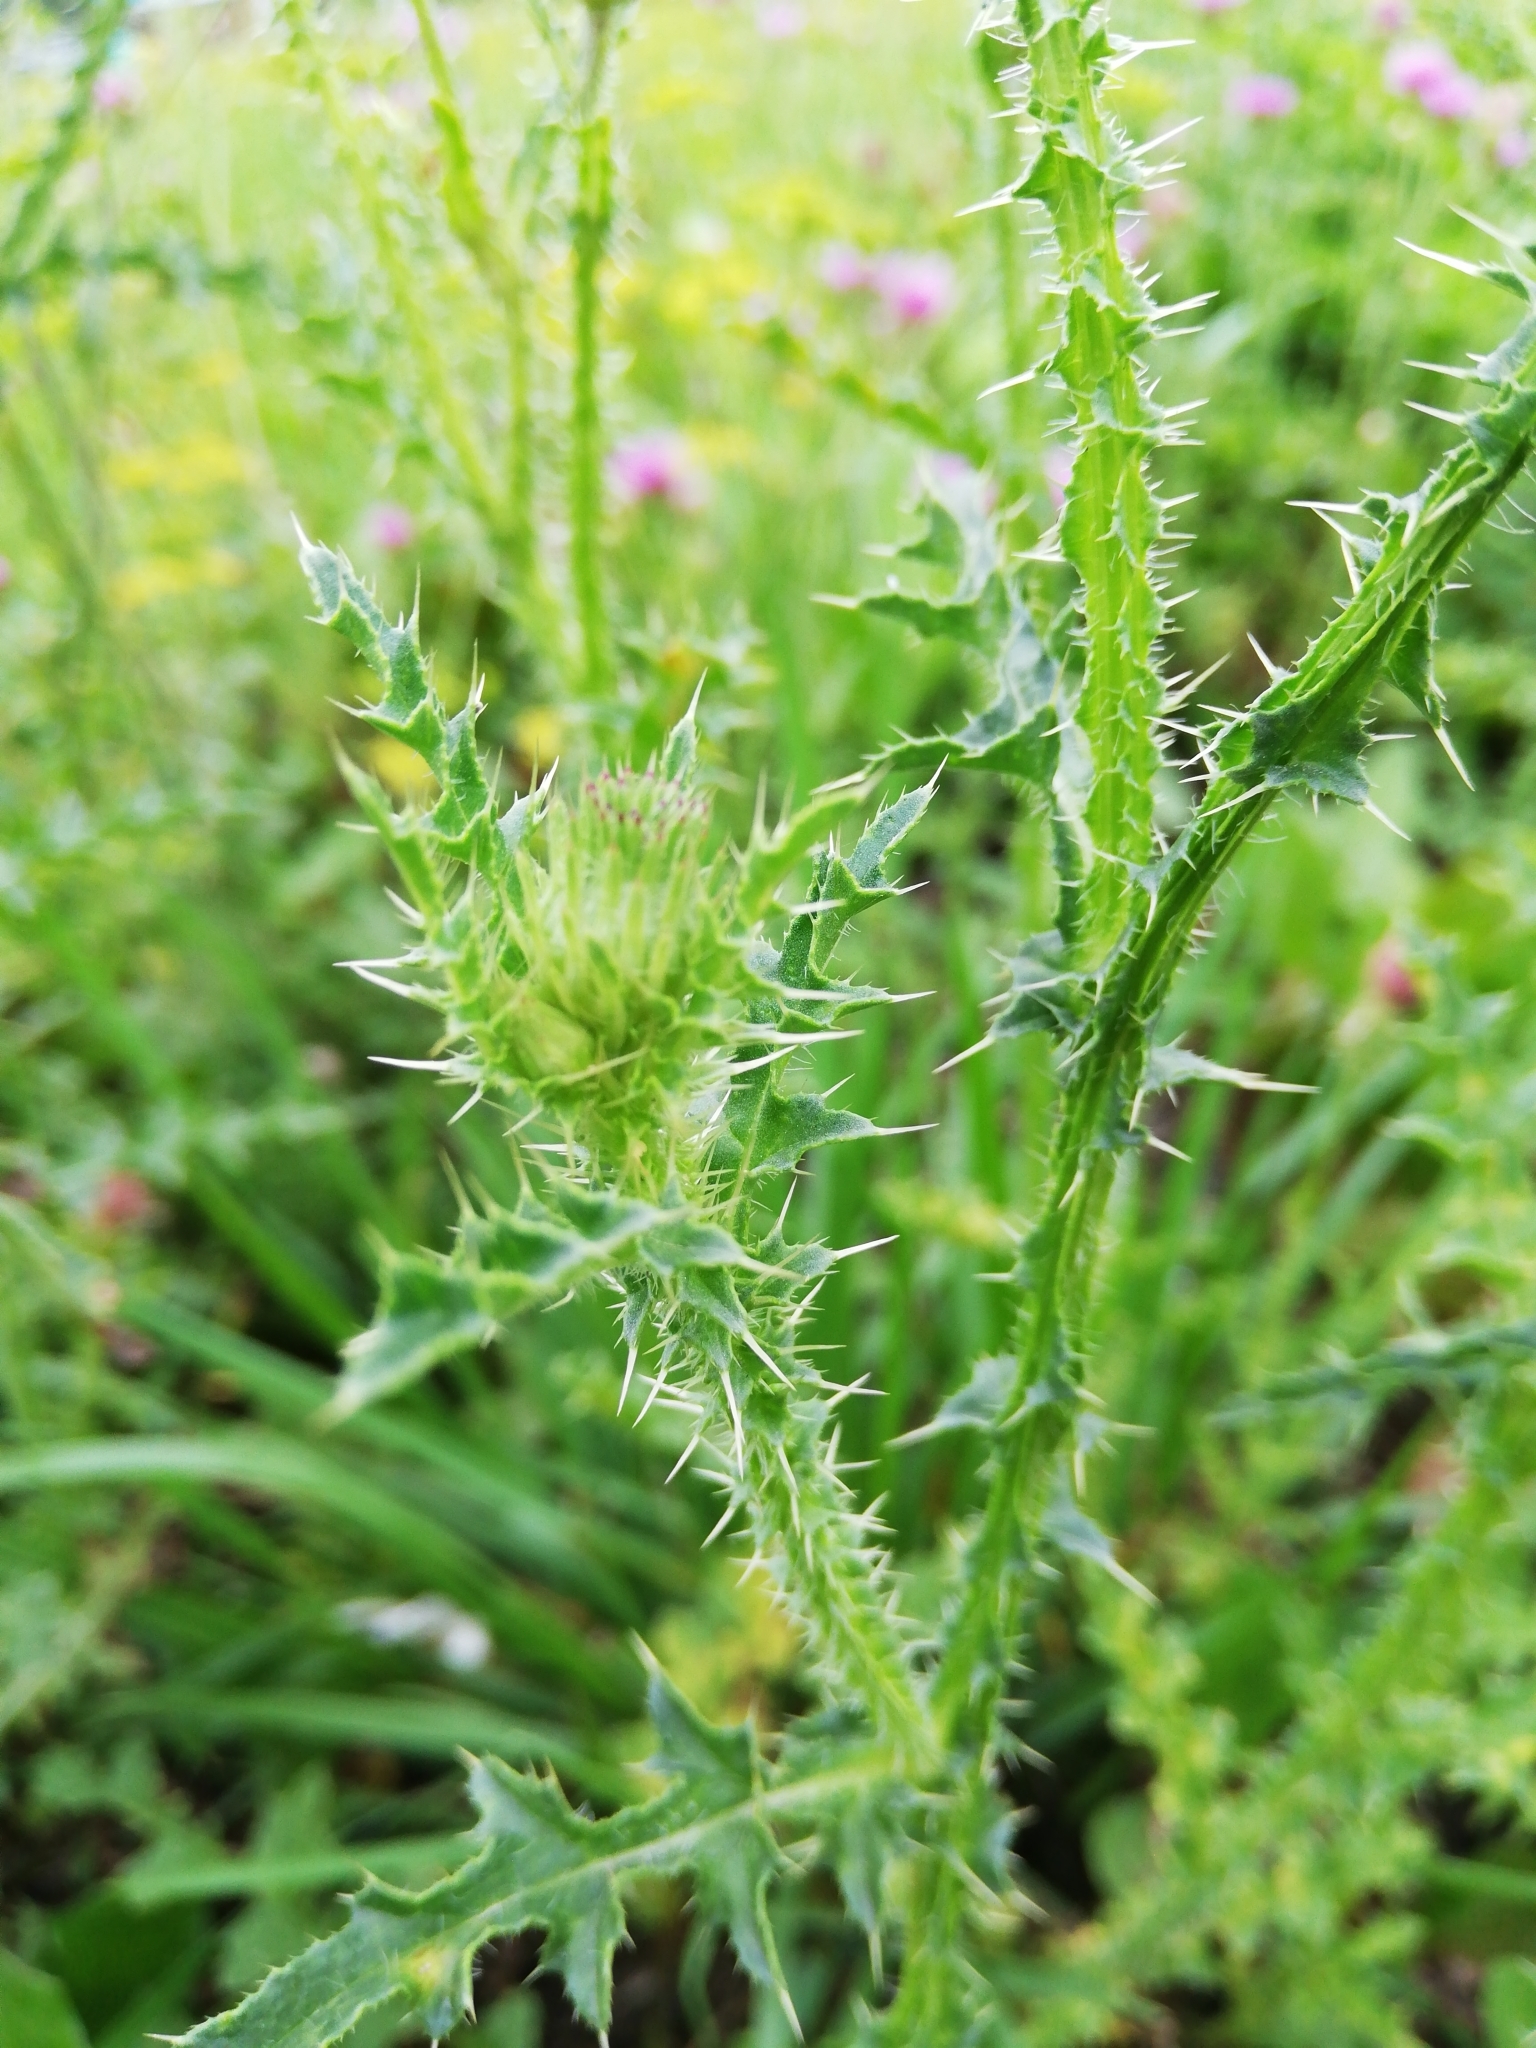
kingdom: Plantae
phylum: Tracheophyta
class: Magnoliopsida
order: Asterales
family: Asteraceae
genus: Carduus
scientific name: Carduus acanthoides
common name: Plumeless thistle
